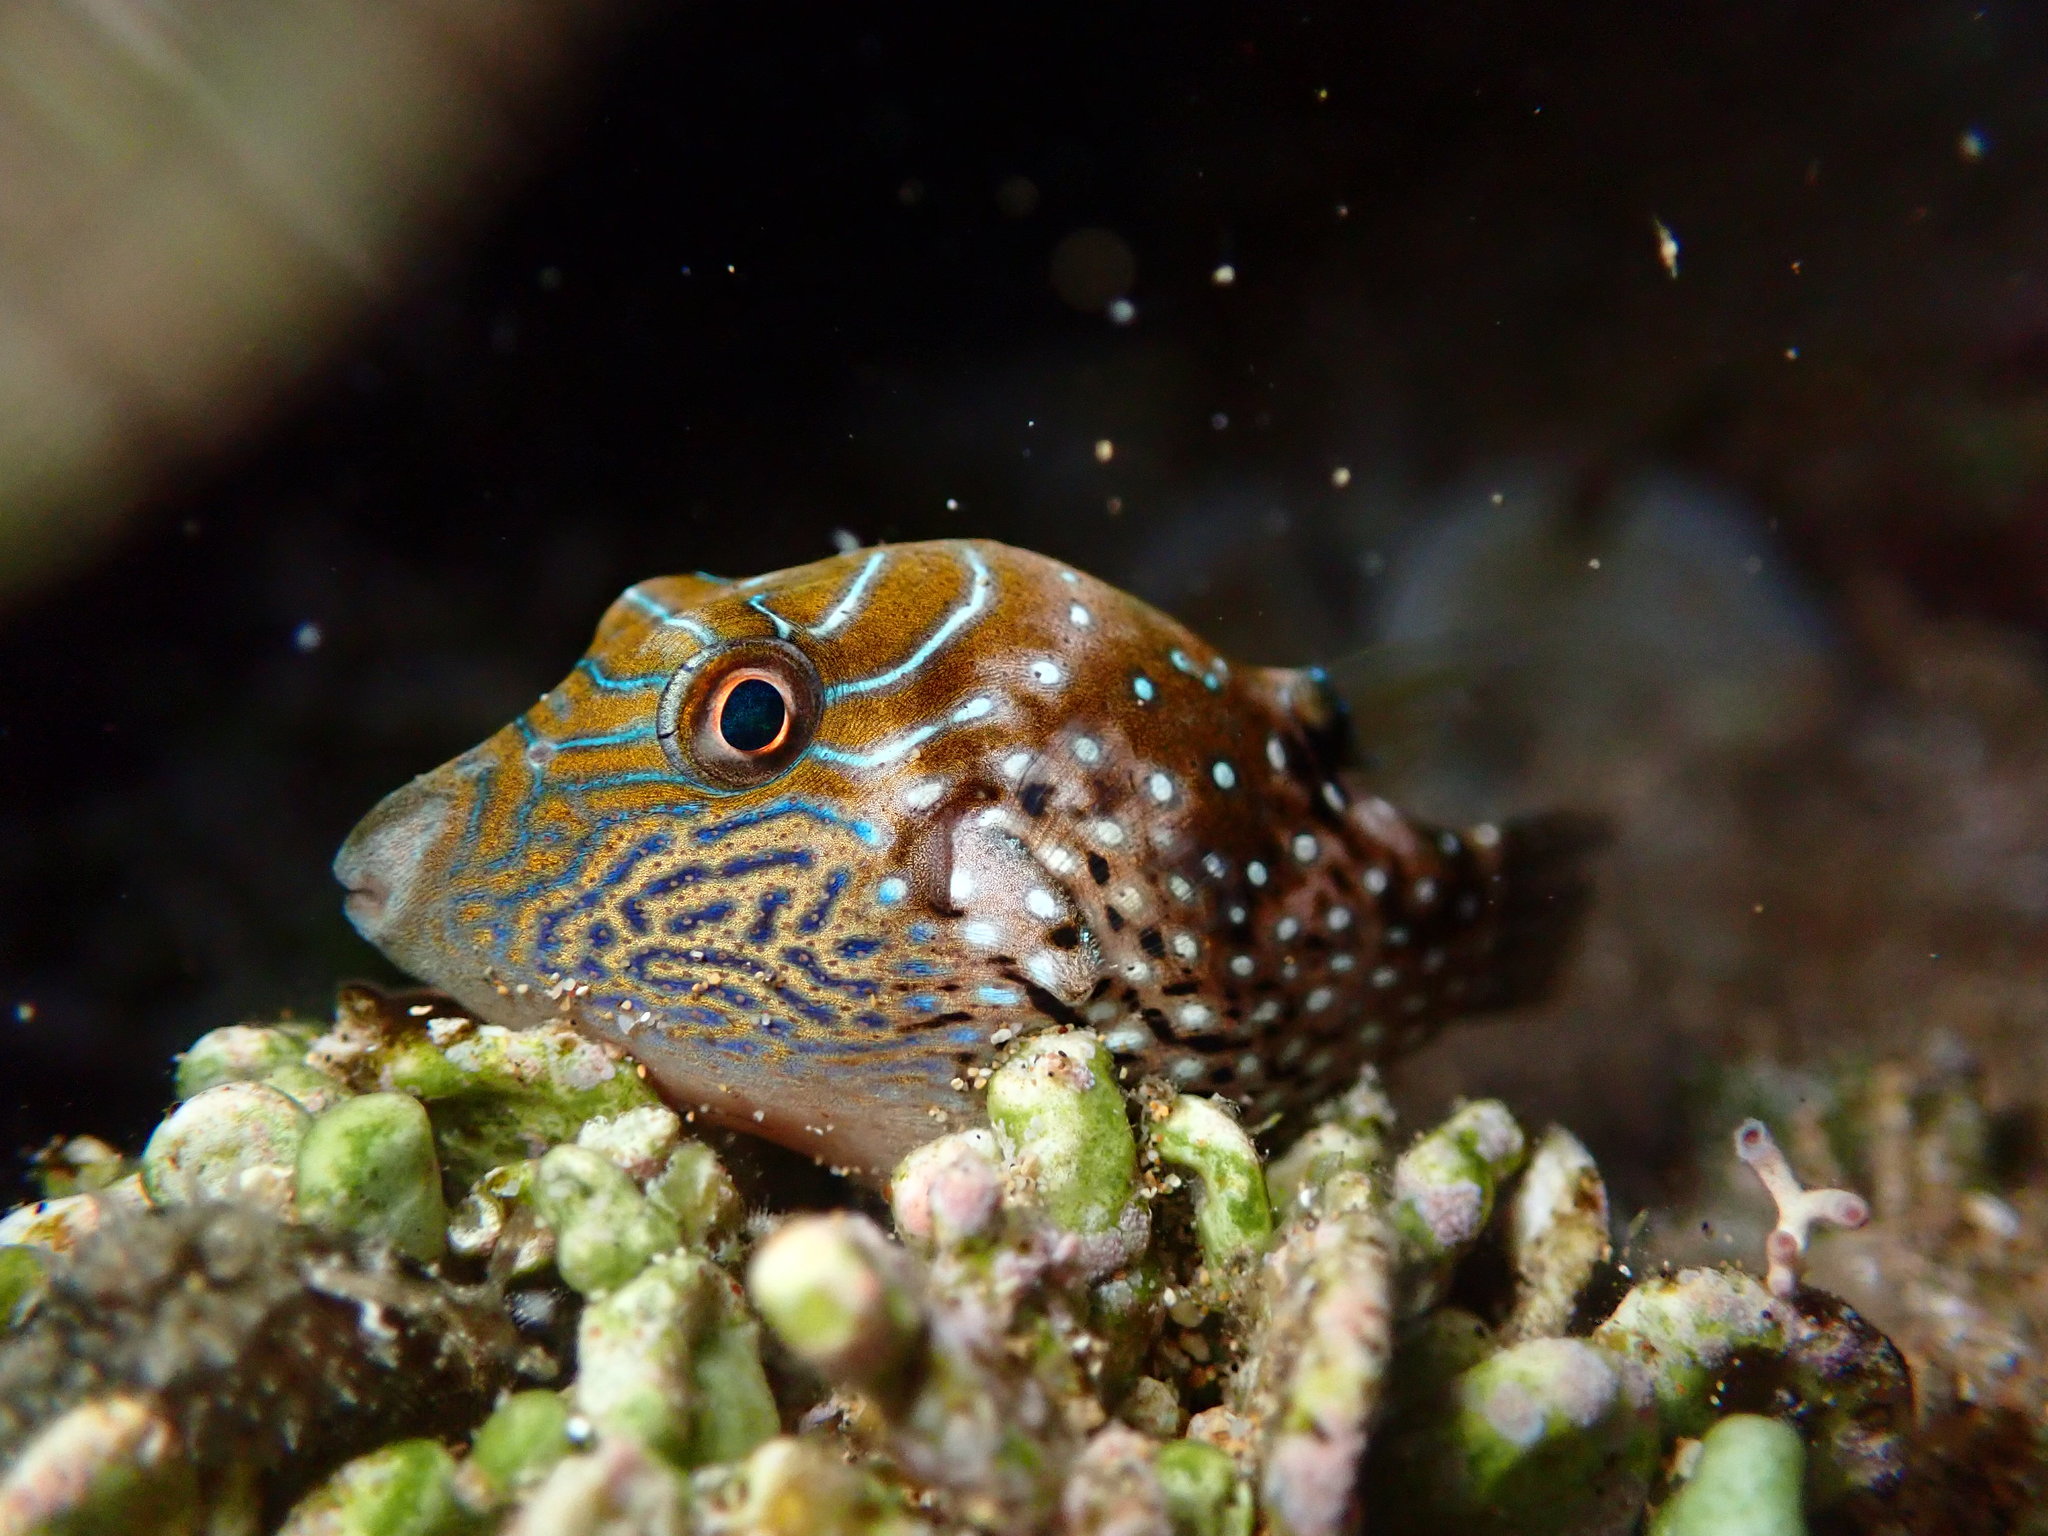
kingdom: Animalia
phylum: Chordata
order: Tetraodontiformes
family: Tetraodontidae
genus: Canthigaster
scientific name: Canthigaster amboinensis
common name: Ambon pufferfish
